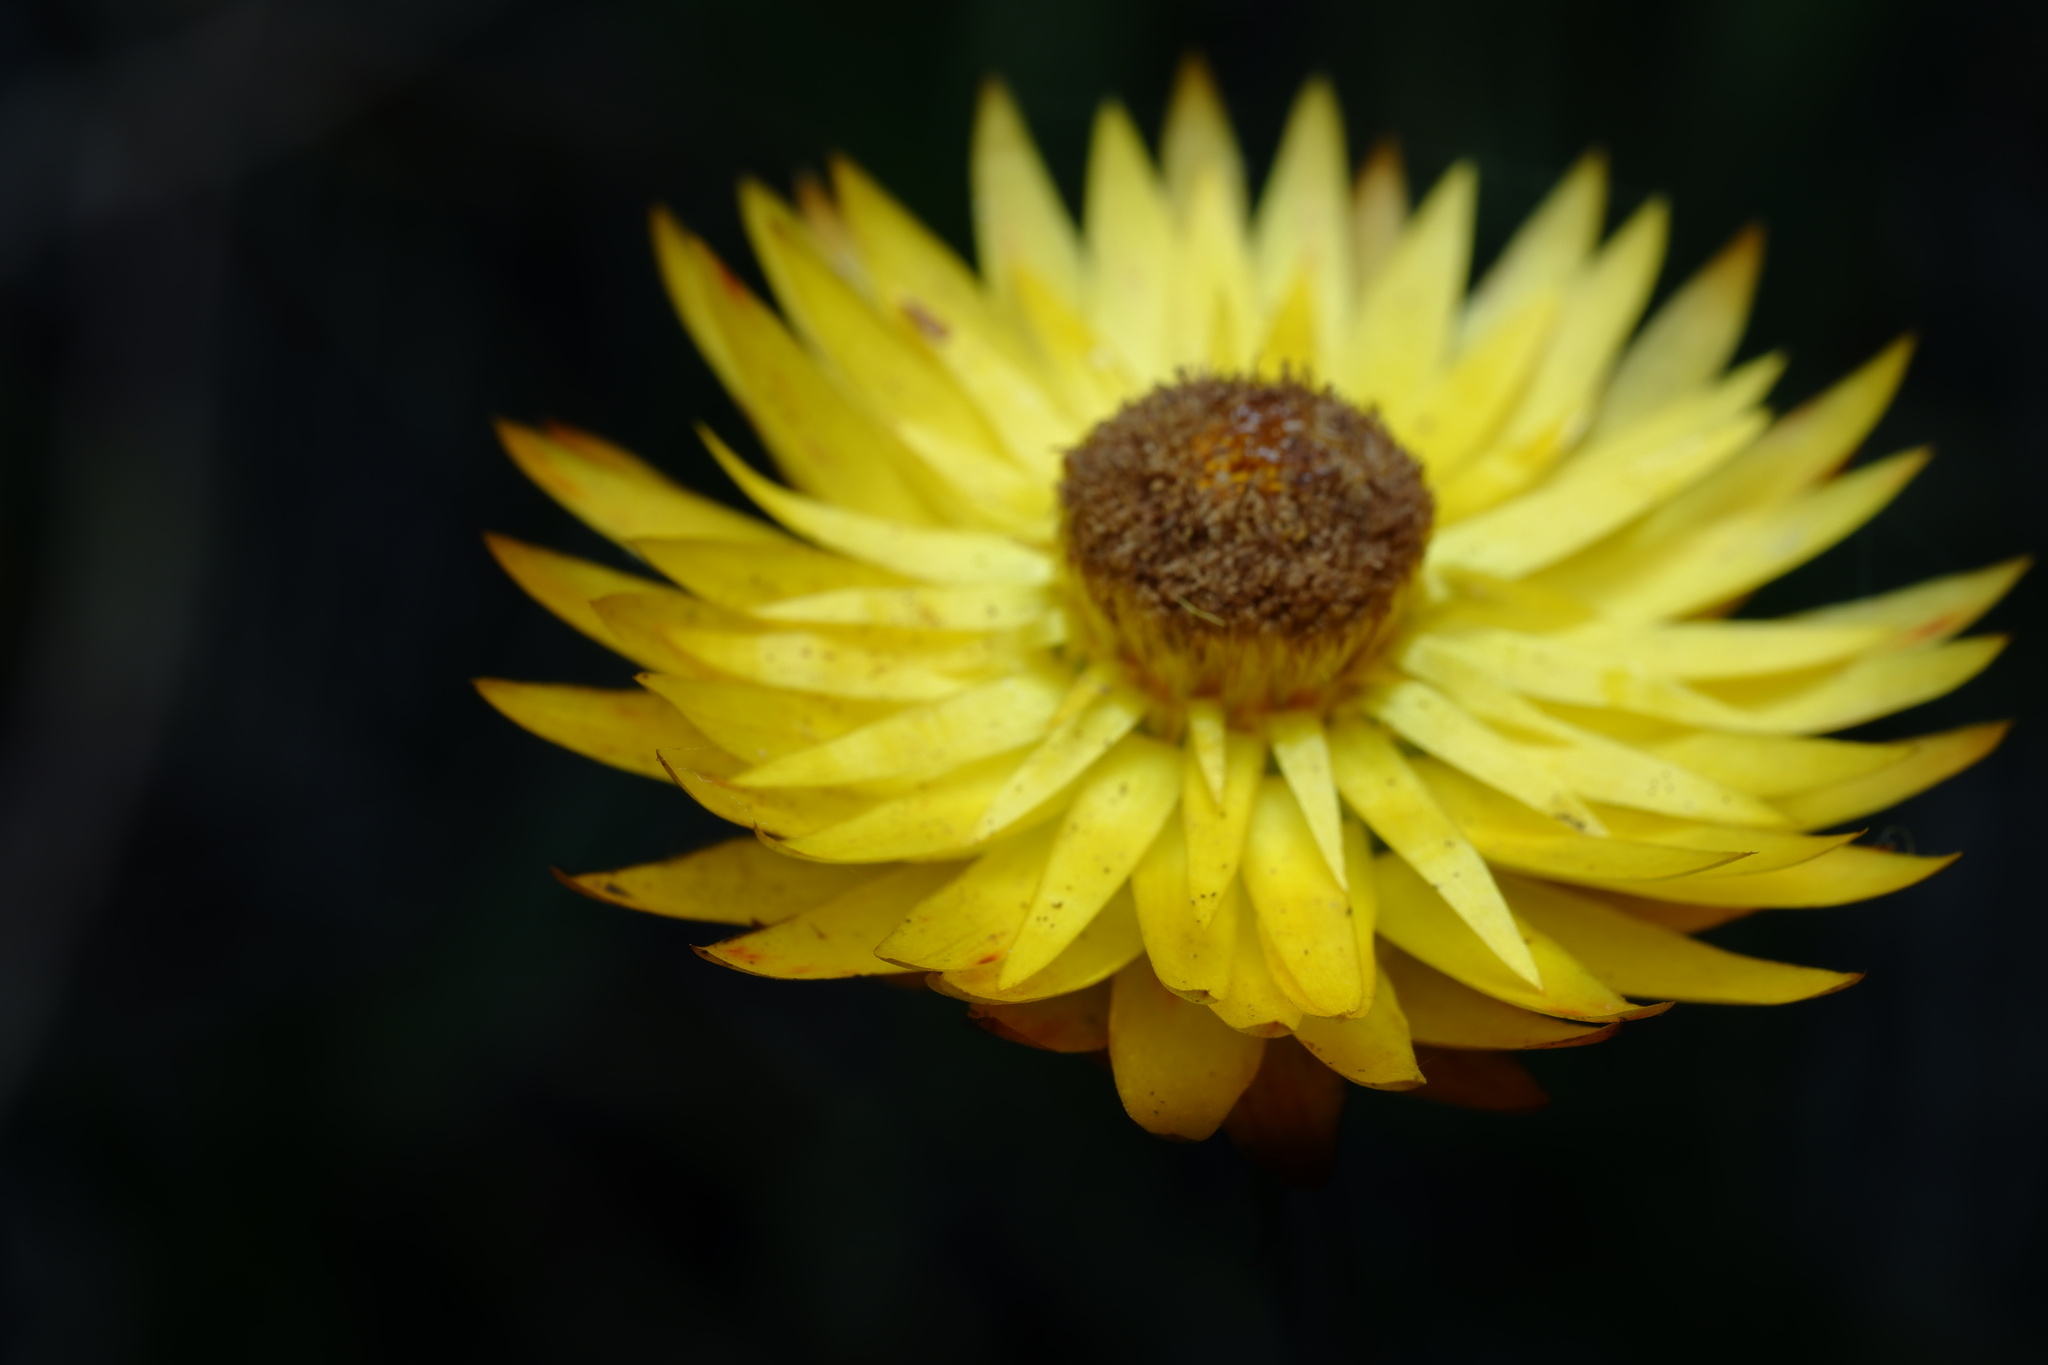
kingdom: Plantae
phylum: Tracheophyta
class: Magnoliopsida
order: Asterales
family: Asteraceae
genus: Xerochrysum
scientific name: Xerochrysum palustre
